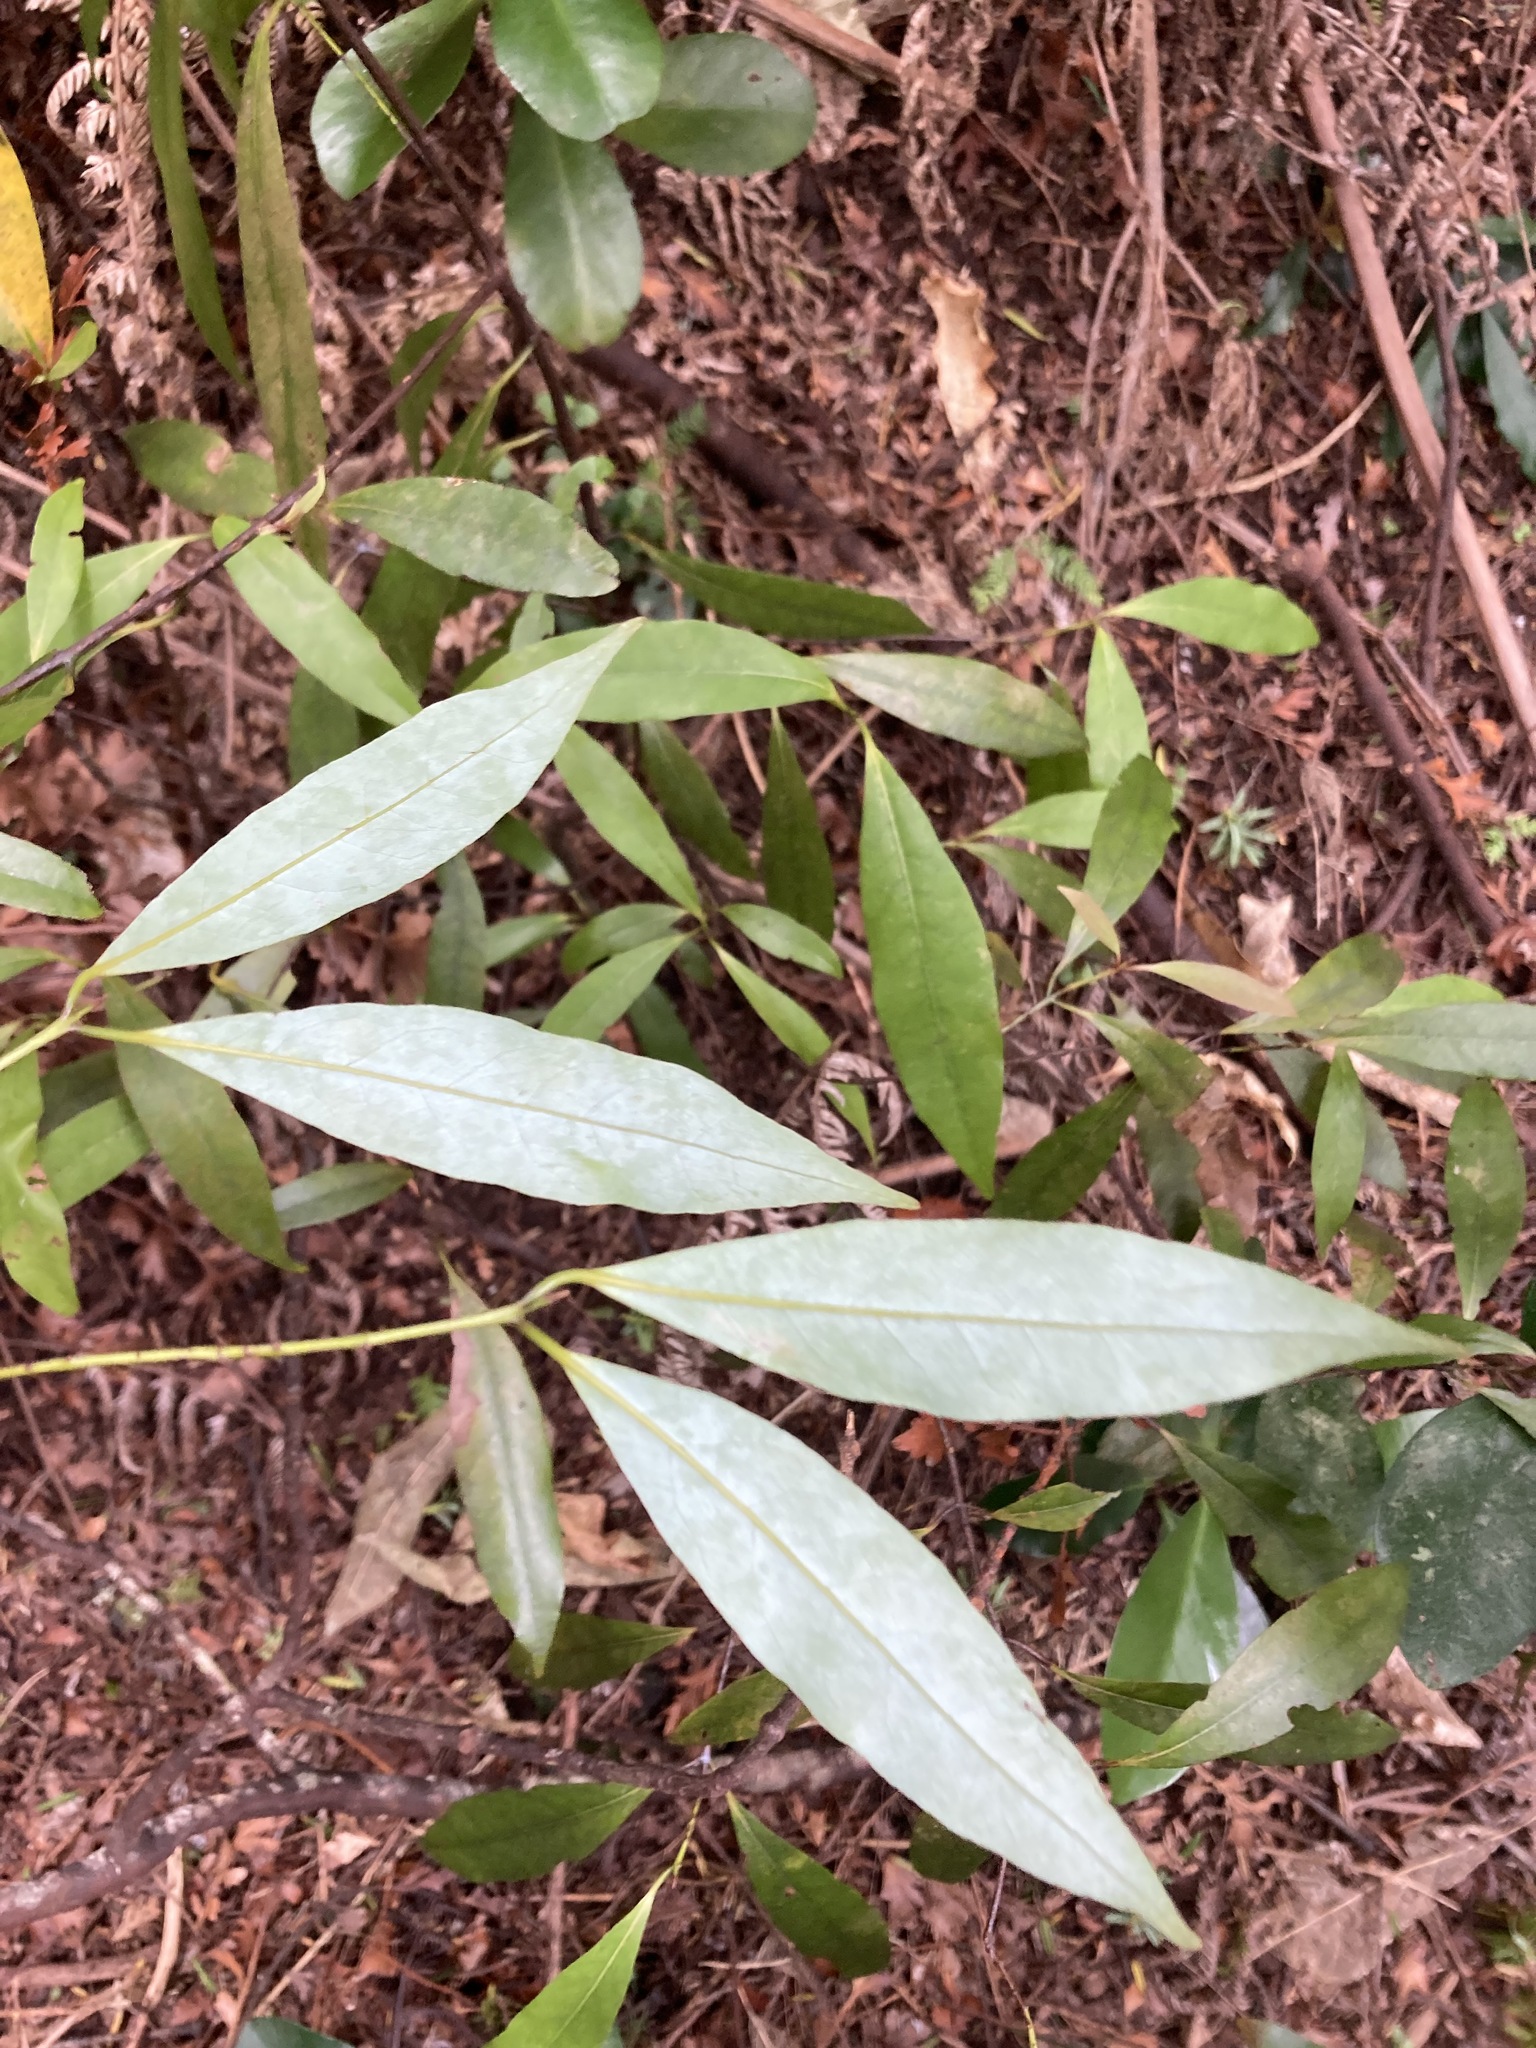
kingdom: Plantae
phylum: Tracheophyta
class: Magnoliopsida
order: Laurales
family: Lauraceae
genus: Beilschmiedia
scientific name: Beilschmiedia tawa
